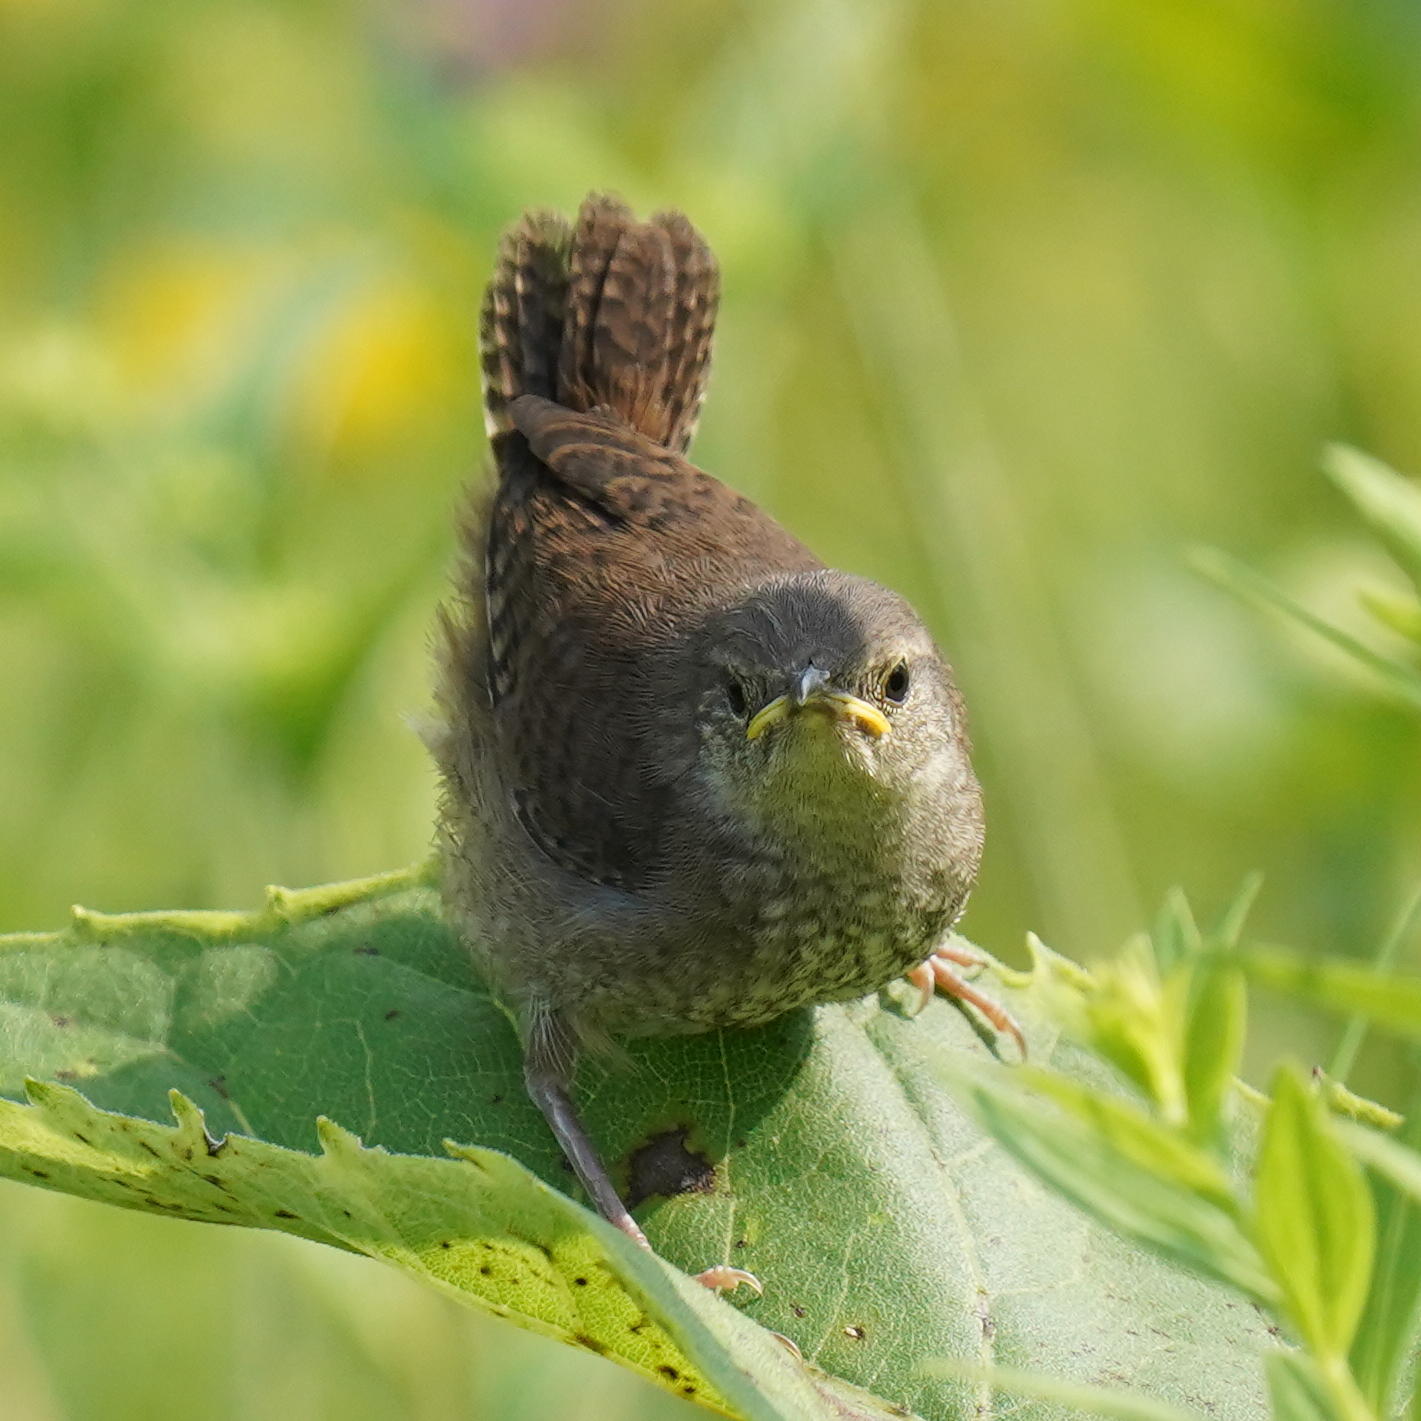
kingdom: Animalia
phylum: Chordata
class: Aves
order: Passeriformes
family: Troglodytidae
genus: Troglodytes
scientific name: Troglodytes aedon
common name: House wren
